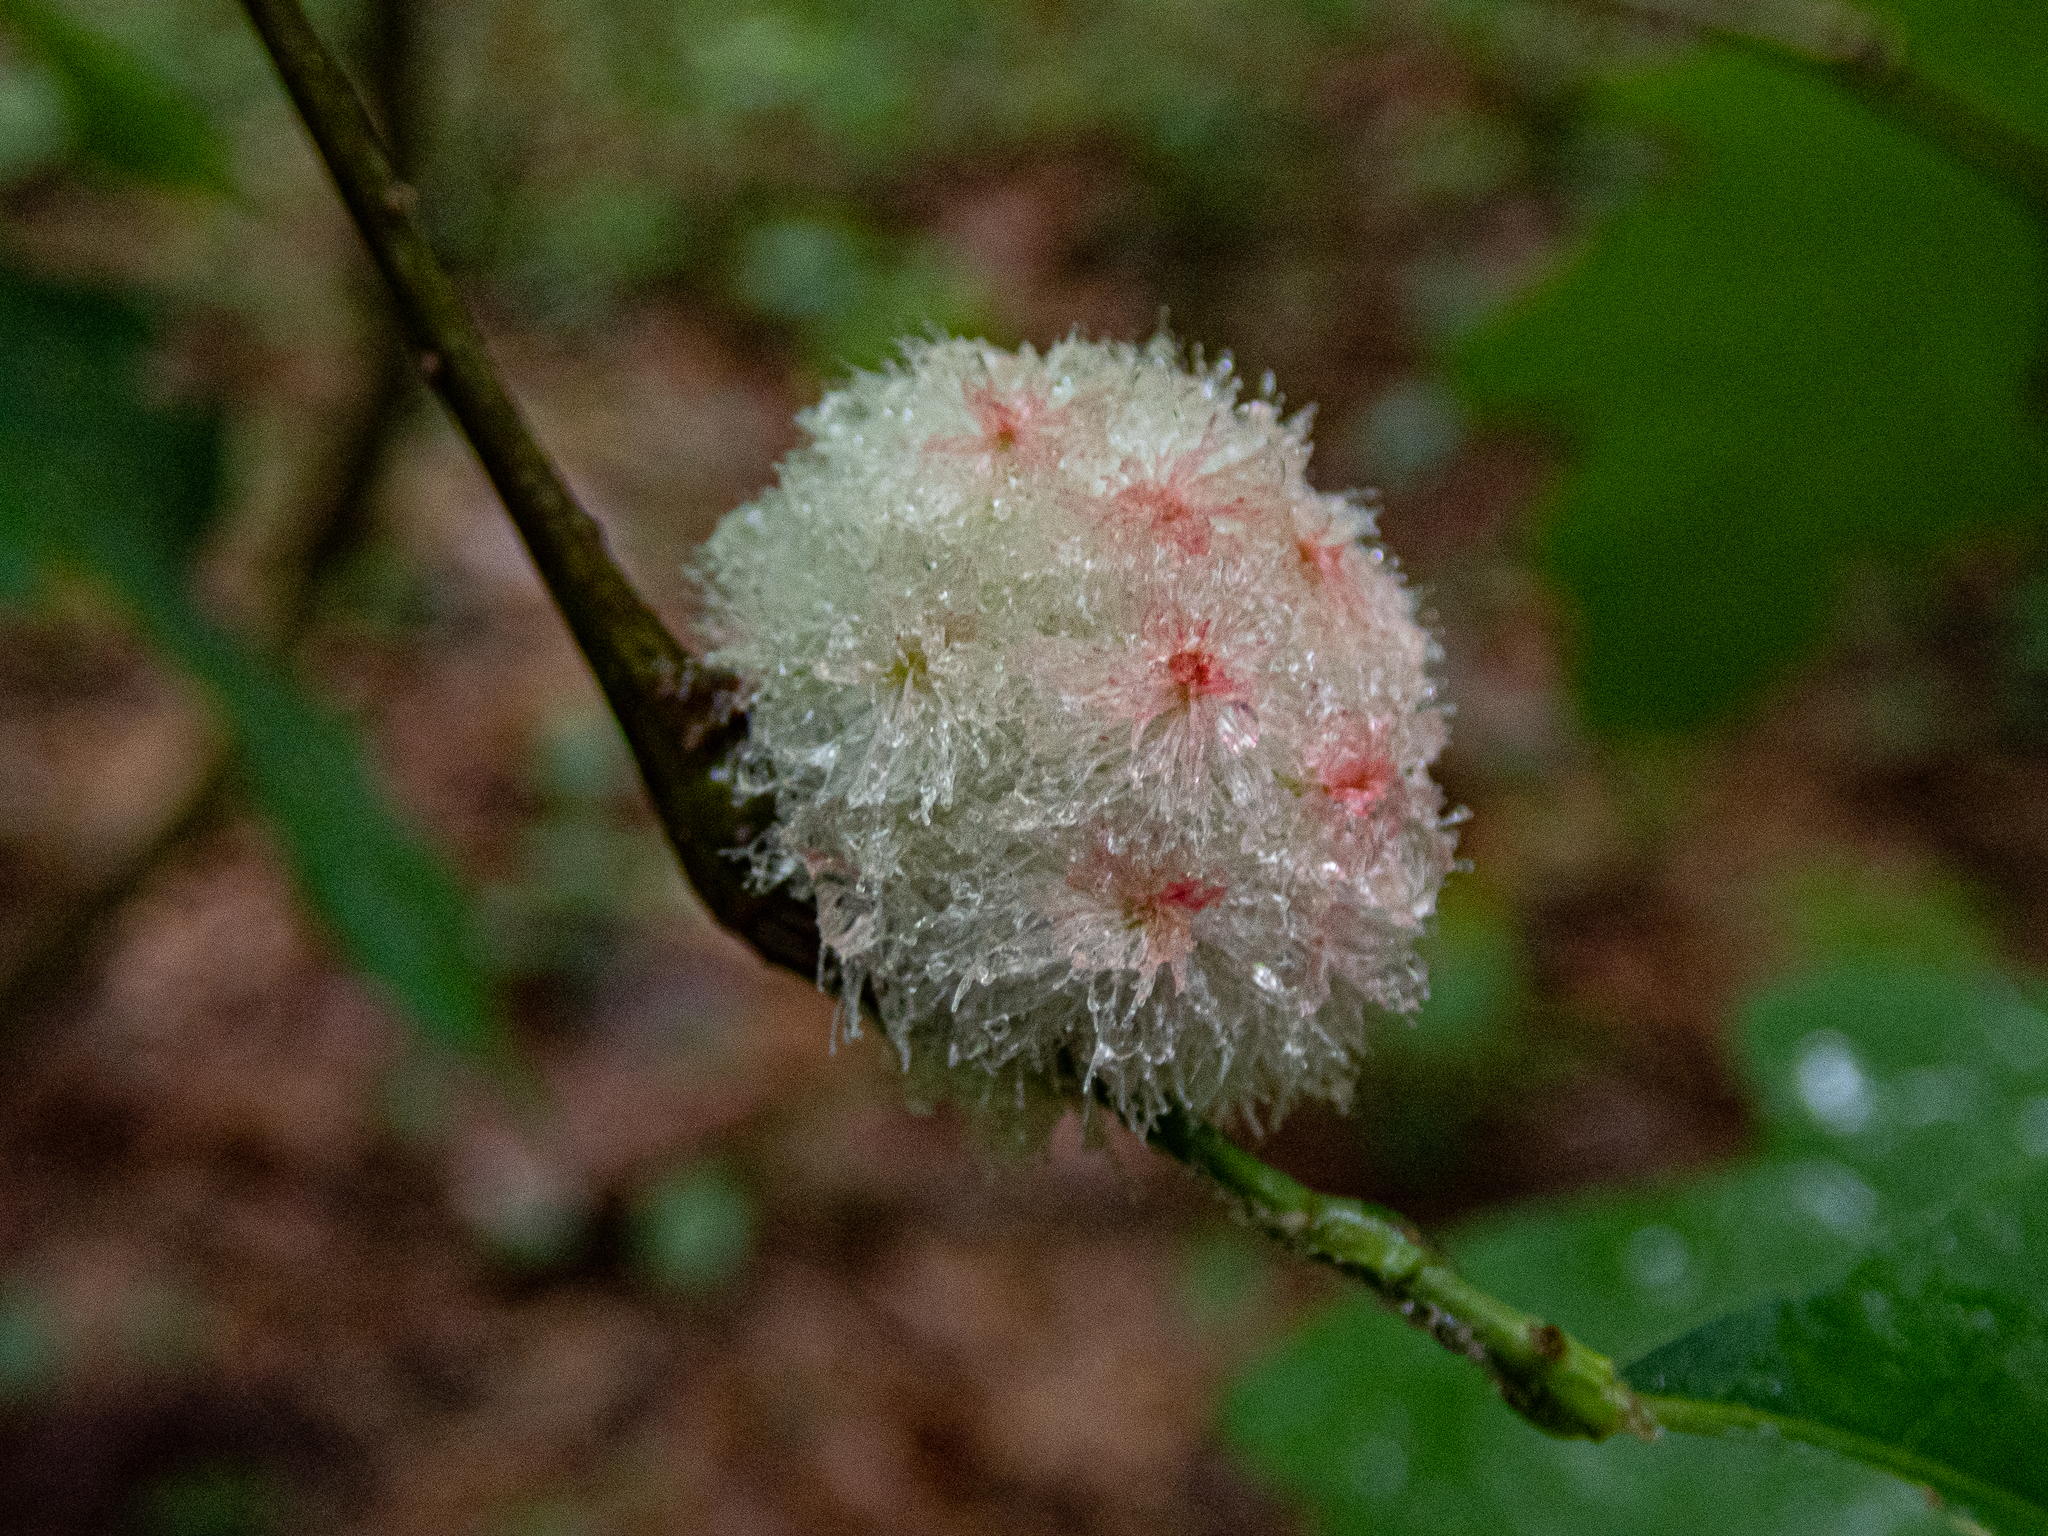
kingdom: Animalia
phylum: Arthropoda
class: Insecta
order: Hymenoptera
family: Cynipidae
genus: Callirhytis
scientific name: Callirhytis
